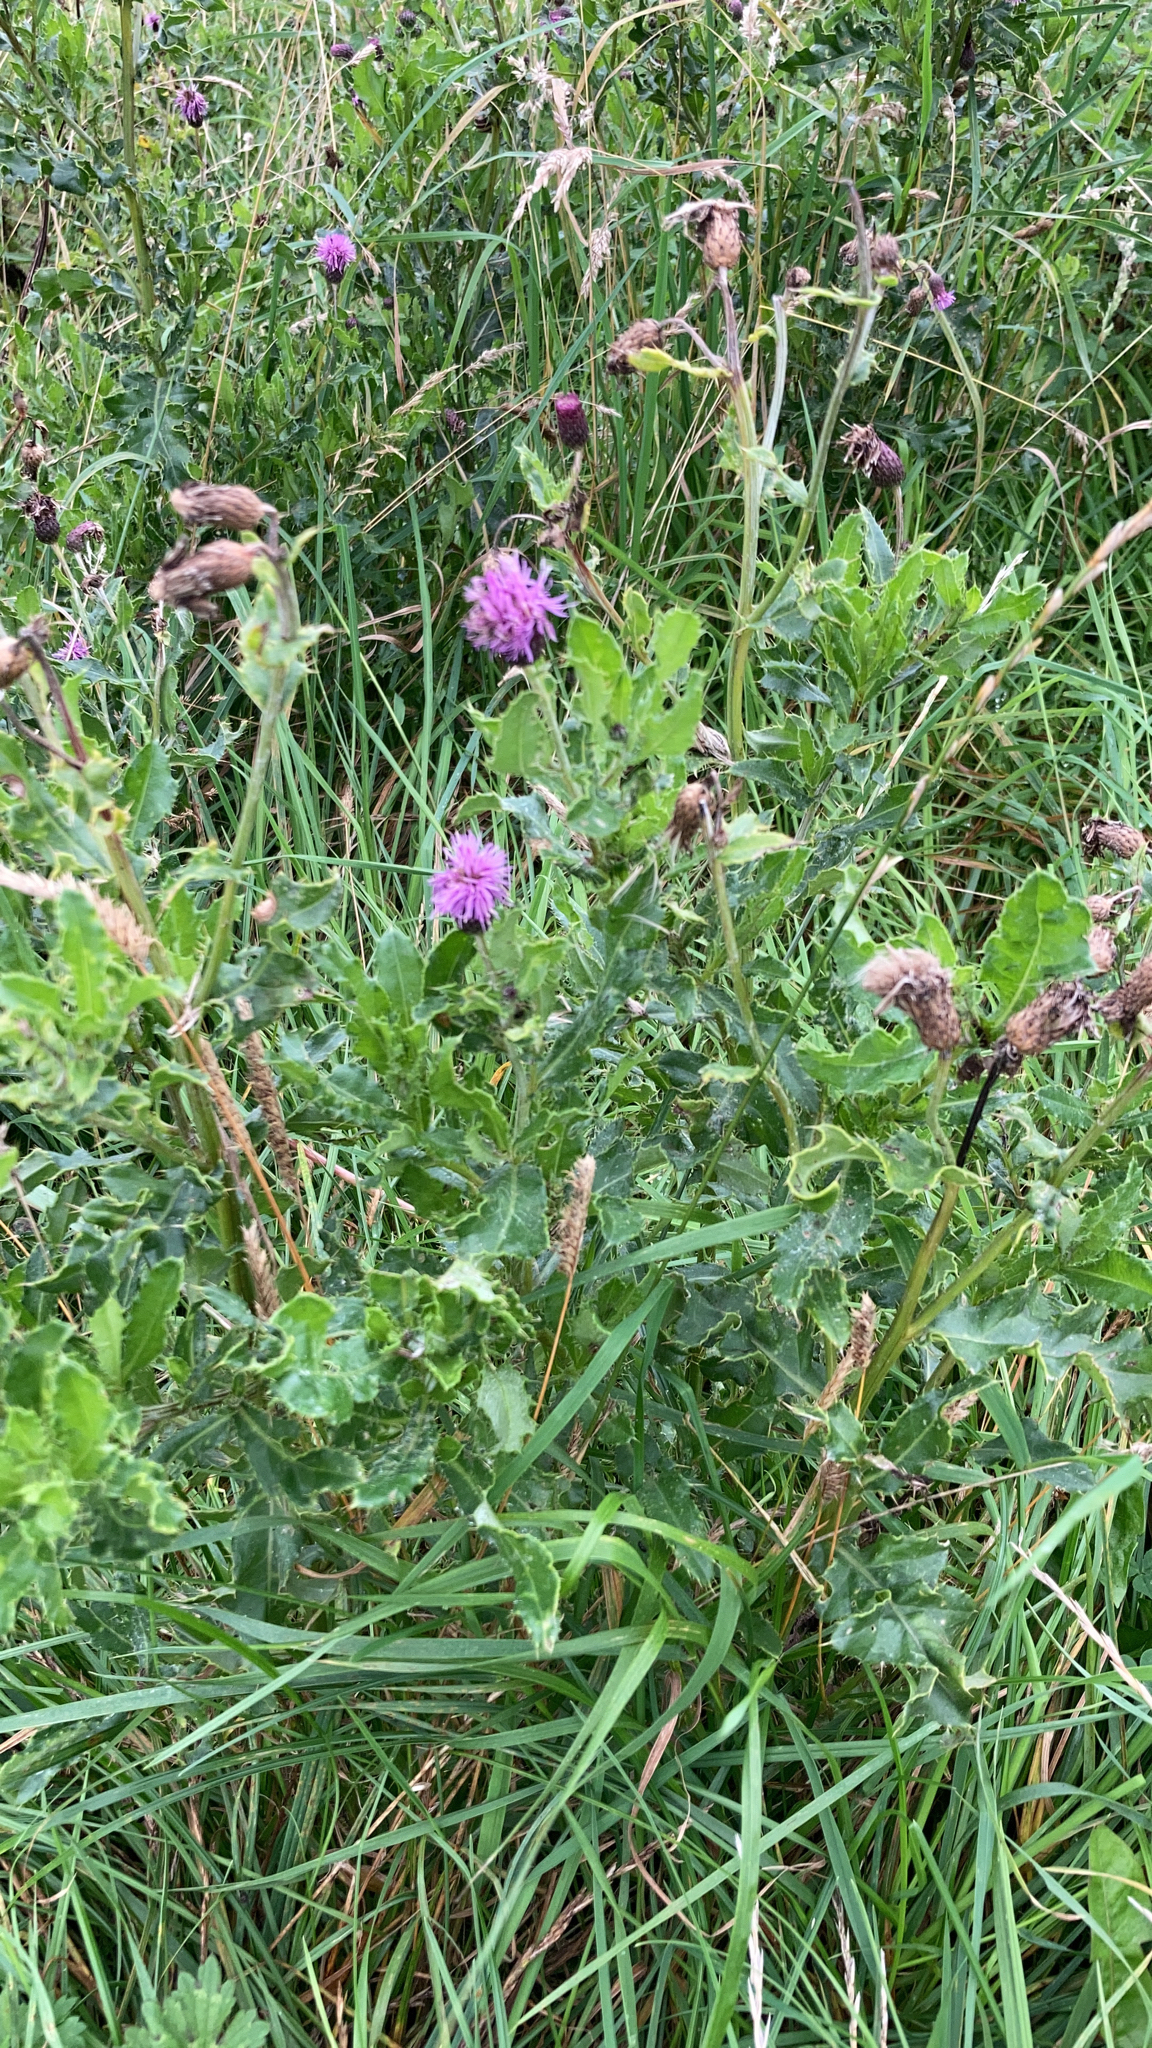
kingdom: Plantae
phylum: Tracheophyta
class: Magnoliopsida
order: Asterales
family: Asteraceae
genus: Cirsium
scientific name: Cirsium arvense
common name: Creeping thistle
